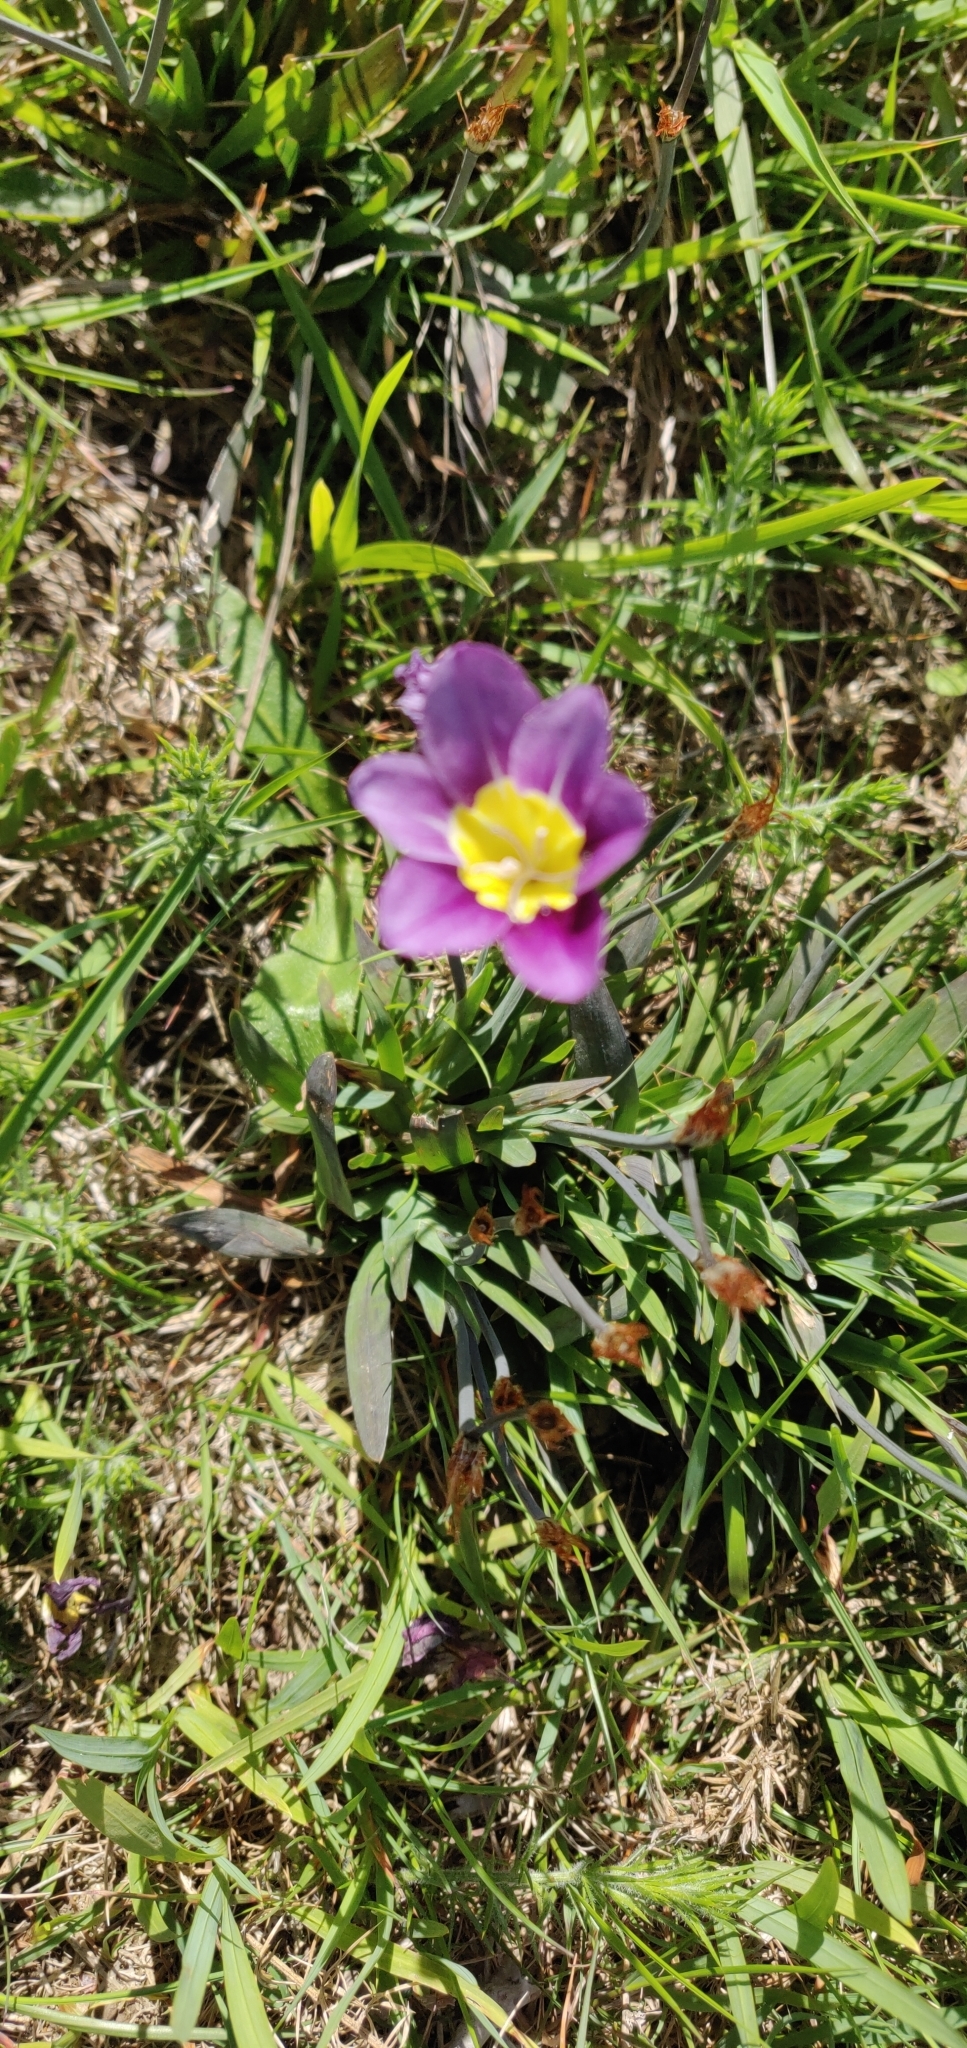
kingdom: Plantae
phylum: Tracheophyta
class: Liliopsida
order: Asparagales
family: Iridaceae
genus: Sparaxis
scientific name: Sparaxis tricolor
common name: Wandflower
